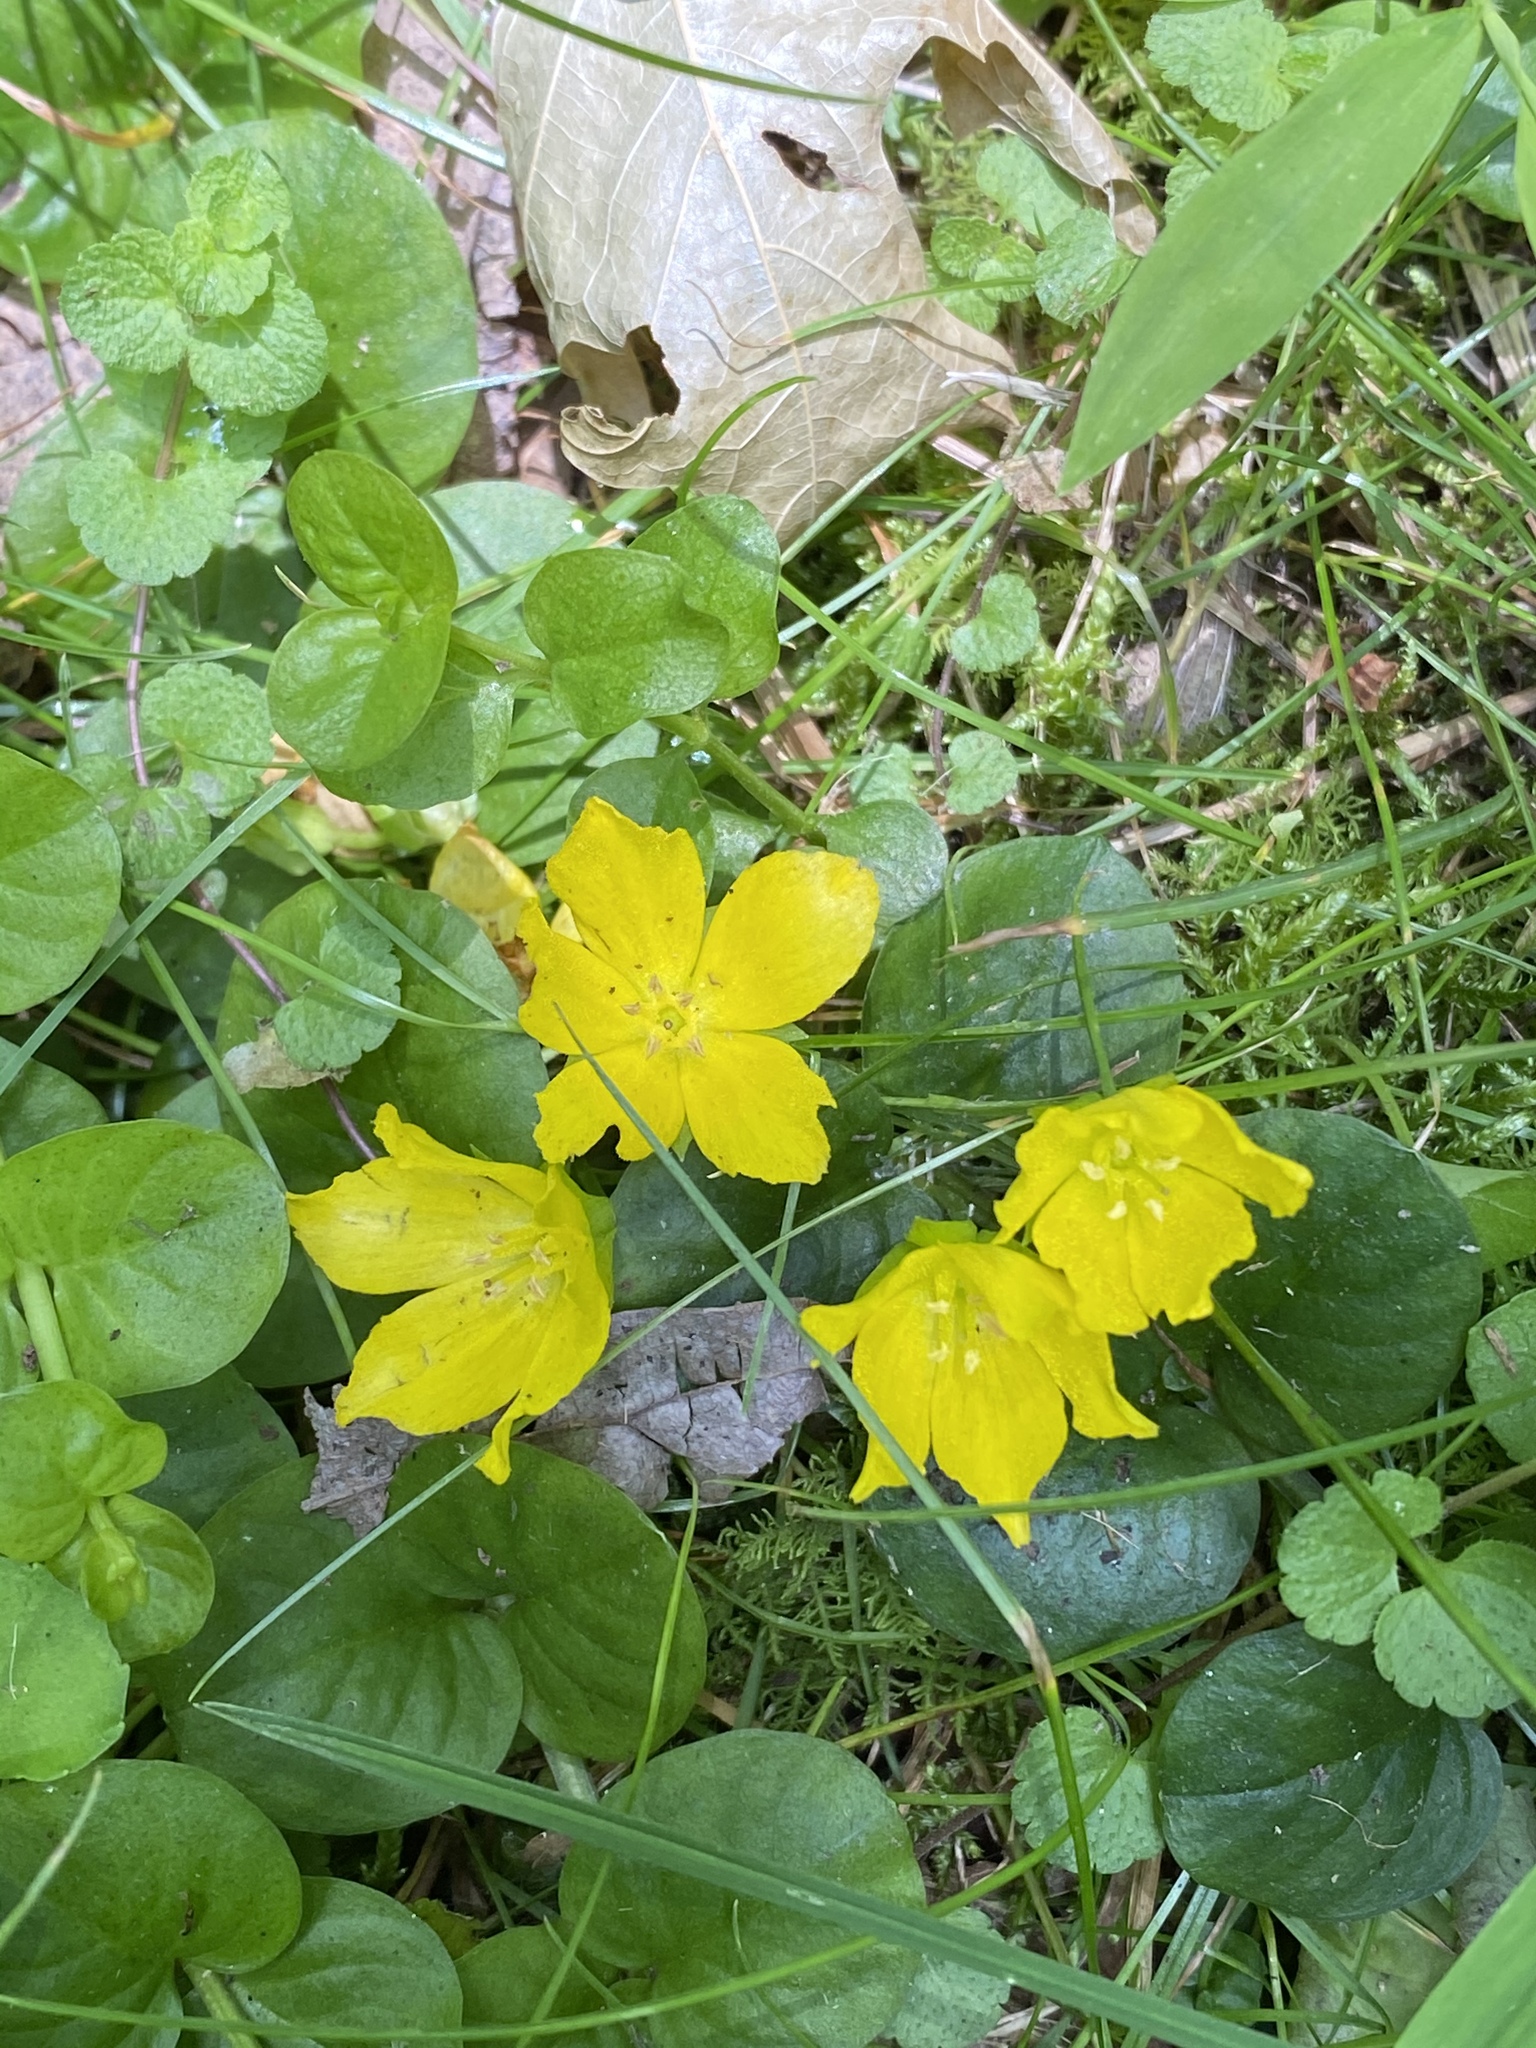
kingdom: Plantae
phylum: Tracheophyta
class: Magnoliopsida
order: Ericales
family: Primulaceae
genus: Lysimachia
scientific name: Lysimachia nummularia
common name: Moneywort
